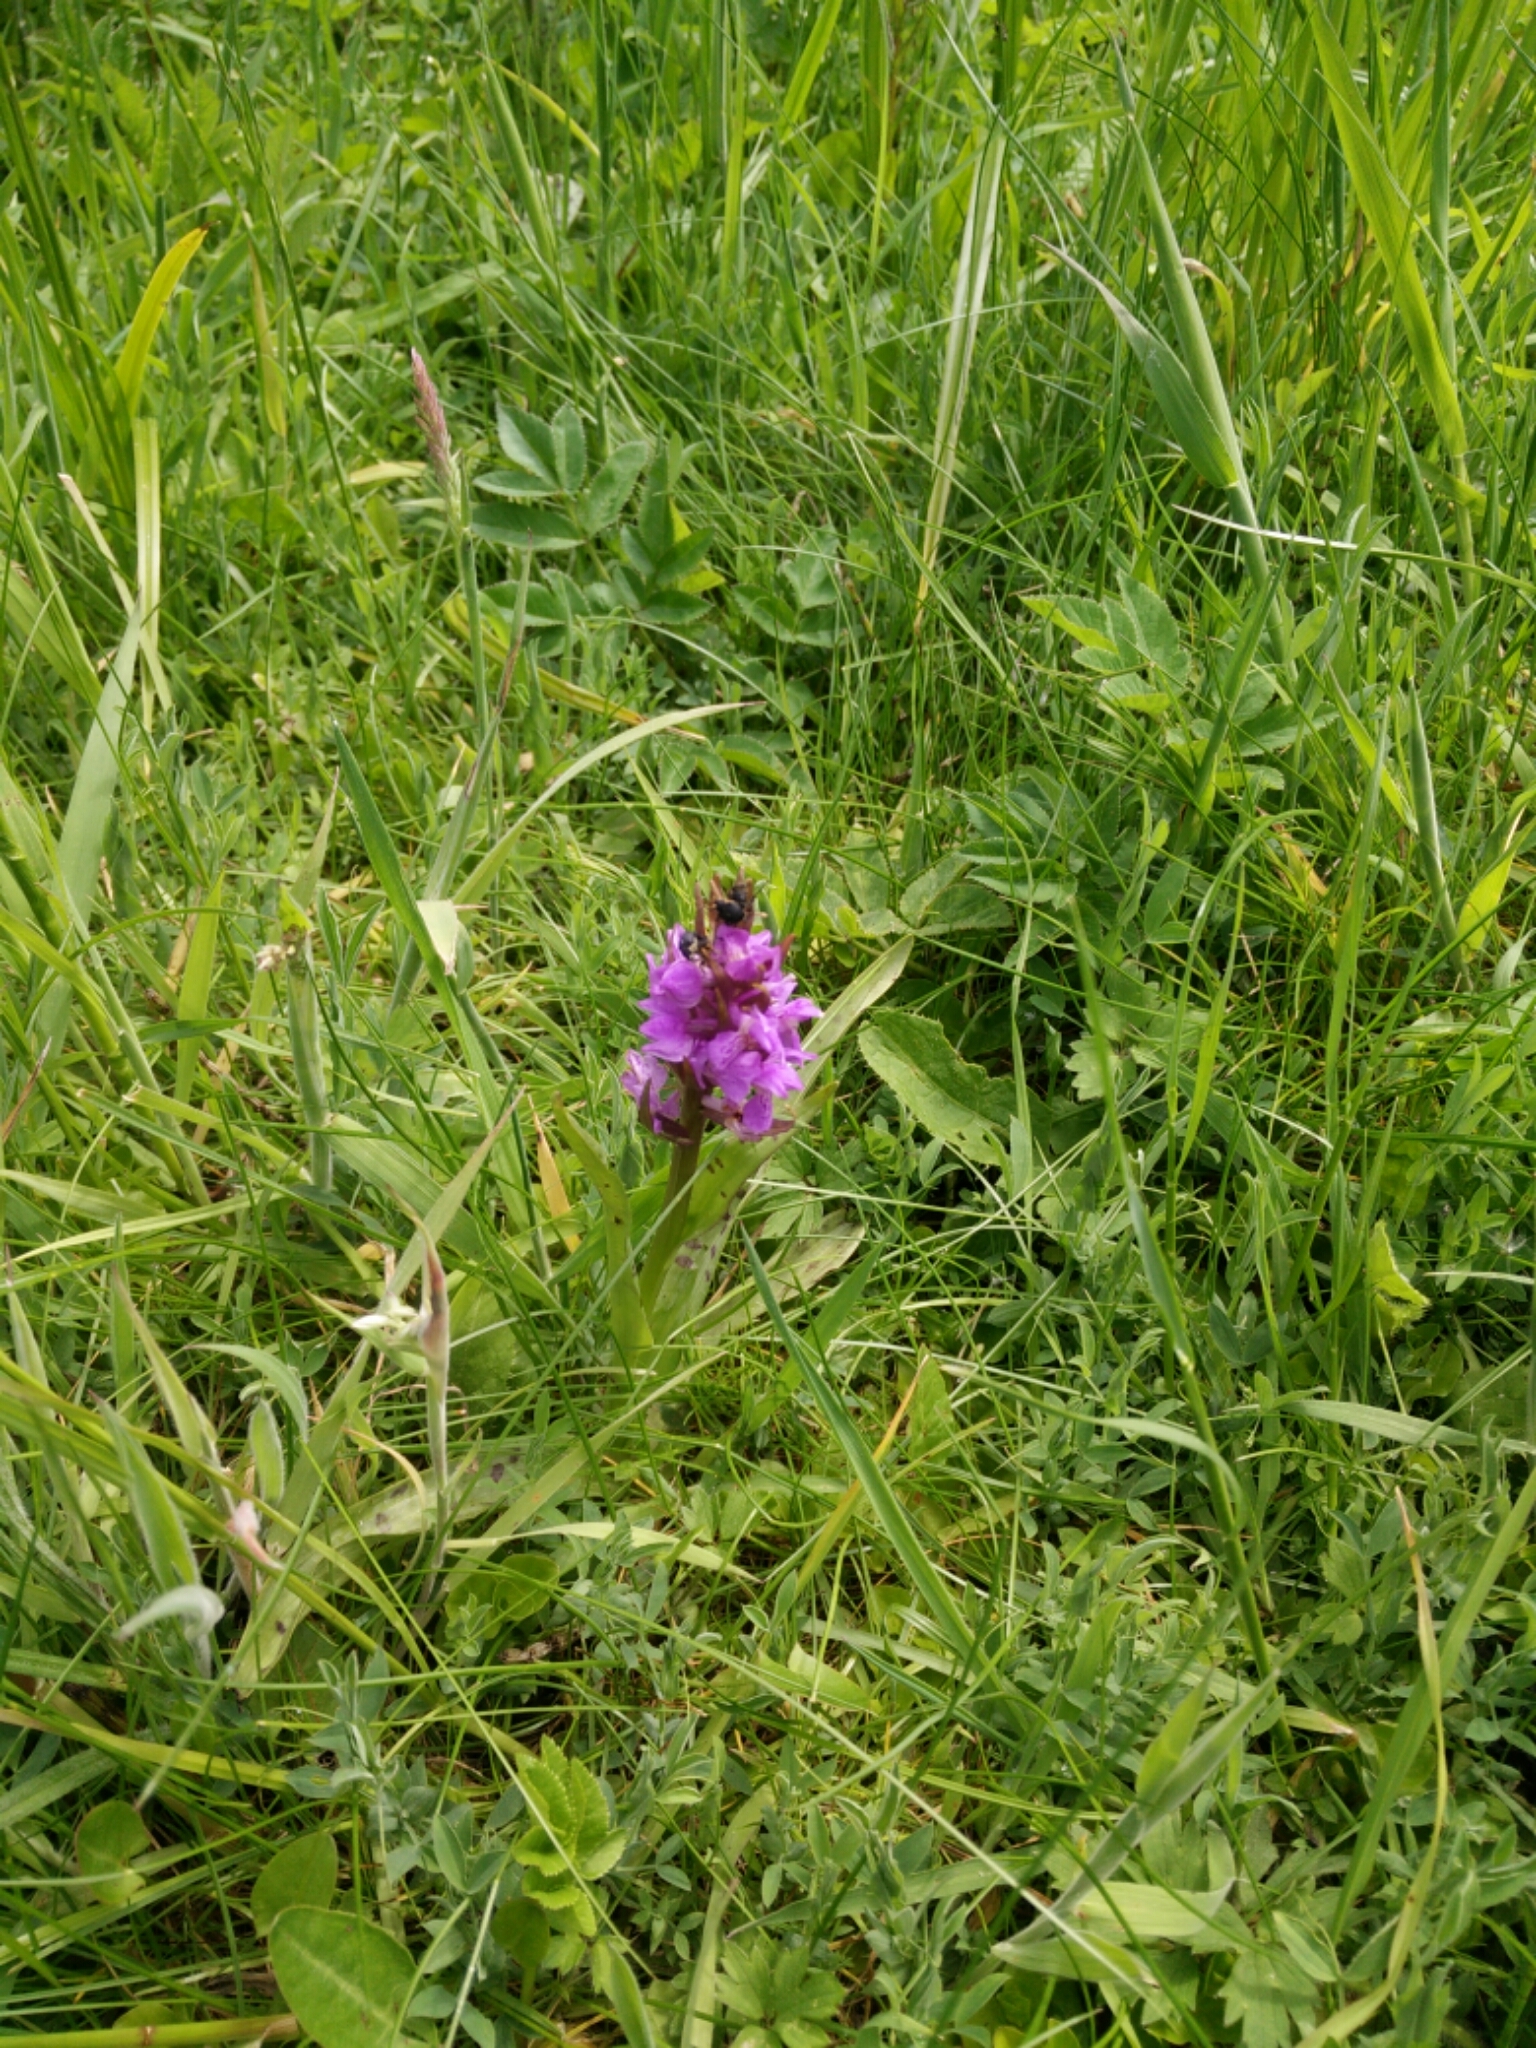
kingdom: Animalia
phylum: Arthropoda
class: Insecta
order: Coleoptera
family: Curculionidae
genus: Mononychus
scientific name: Mononychus punctumalbum
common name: Iris weevil
